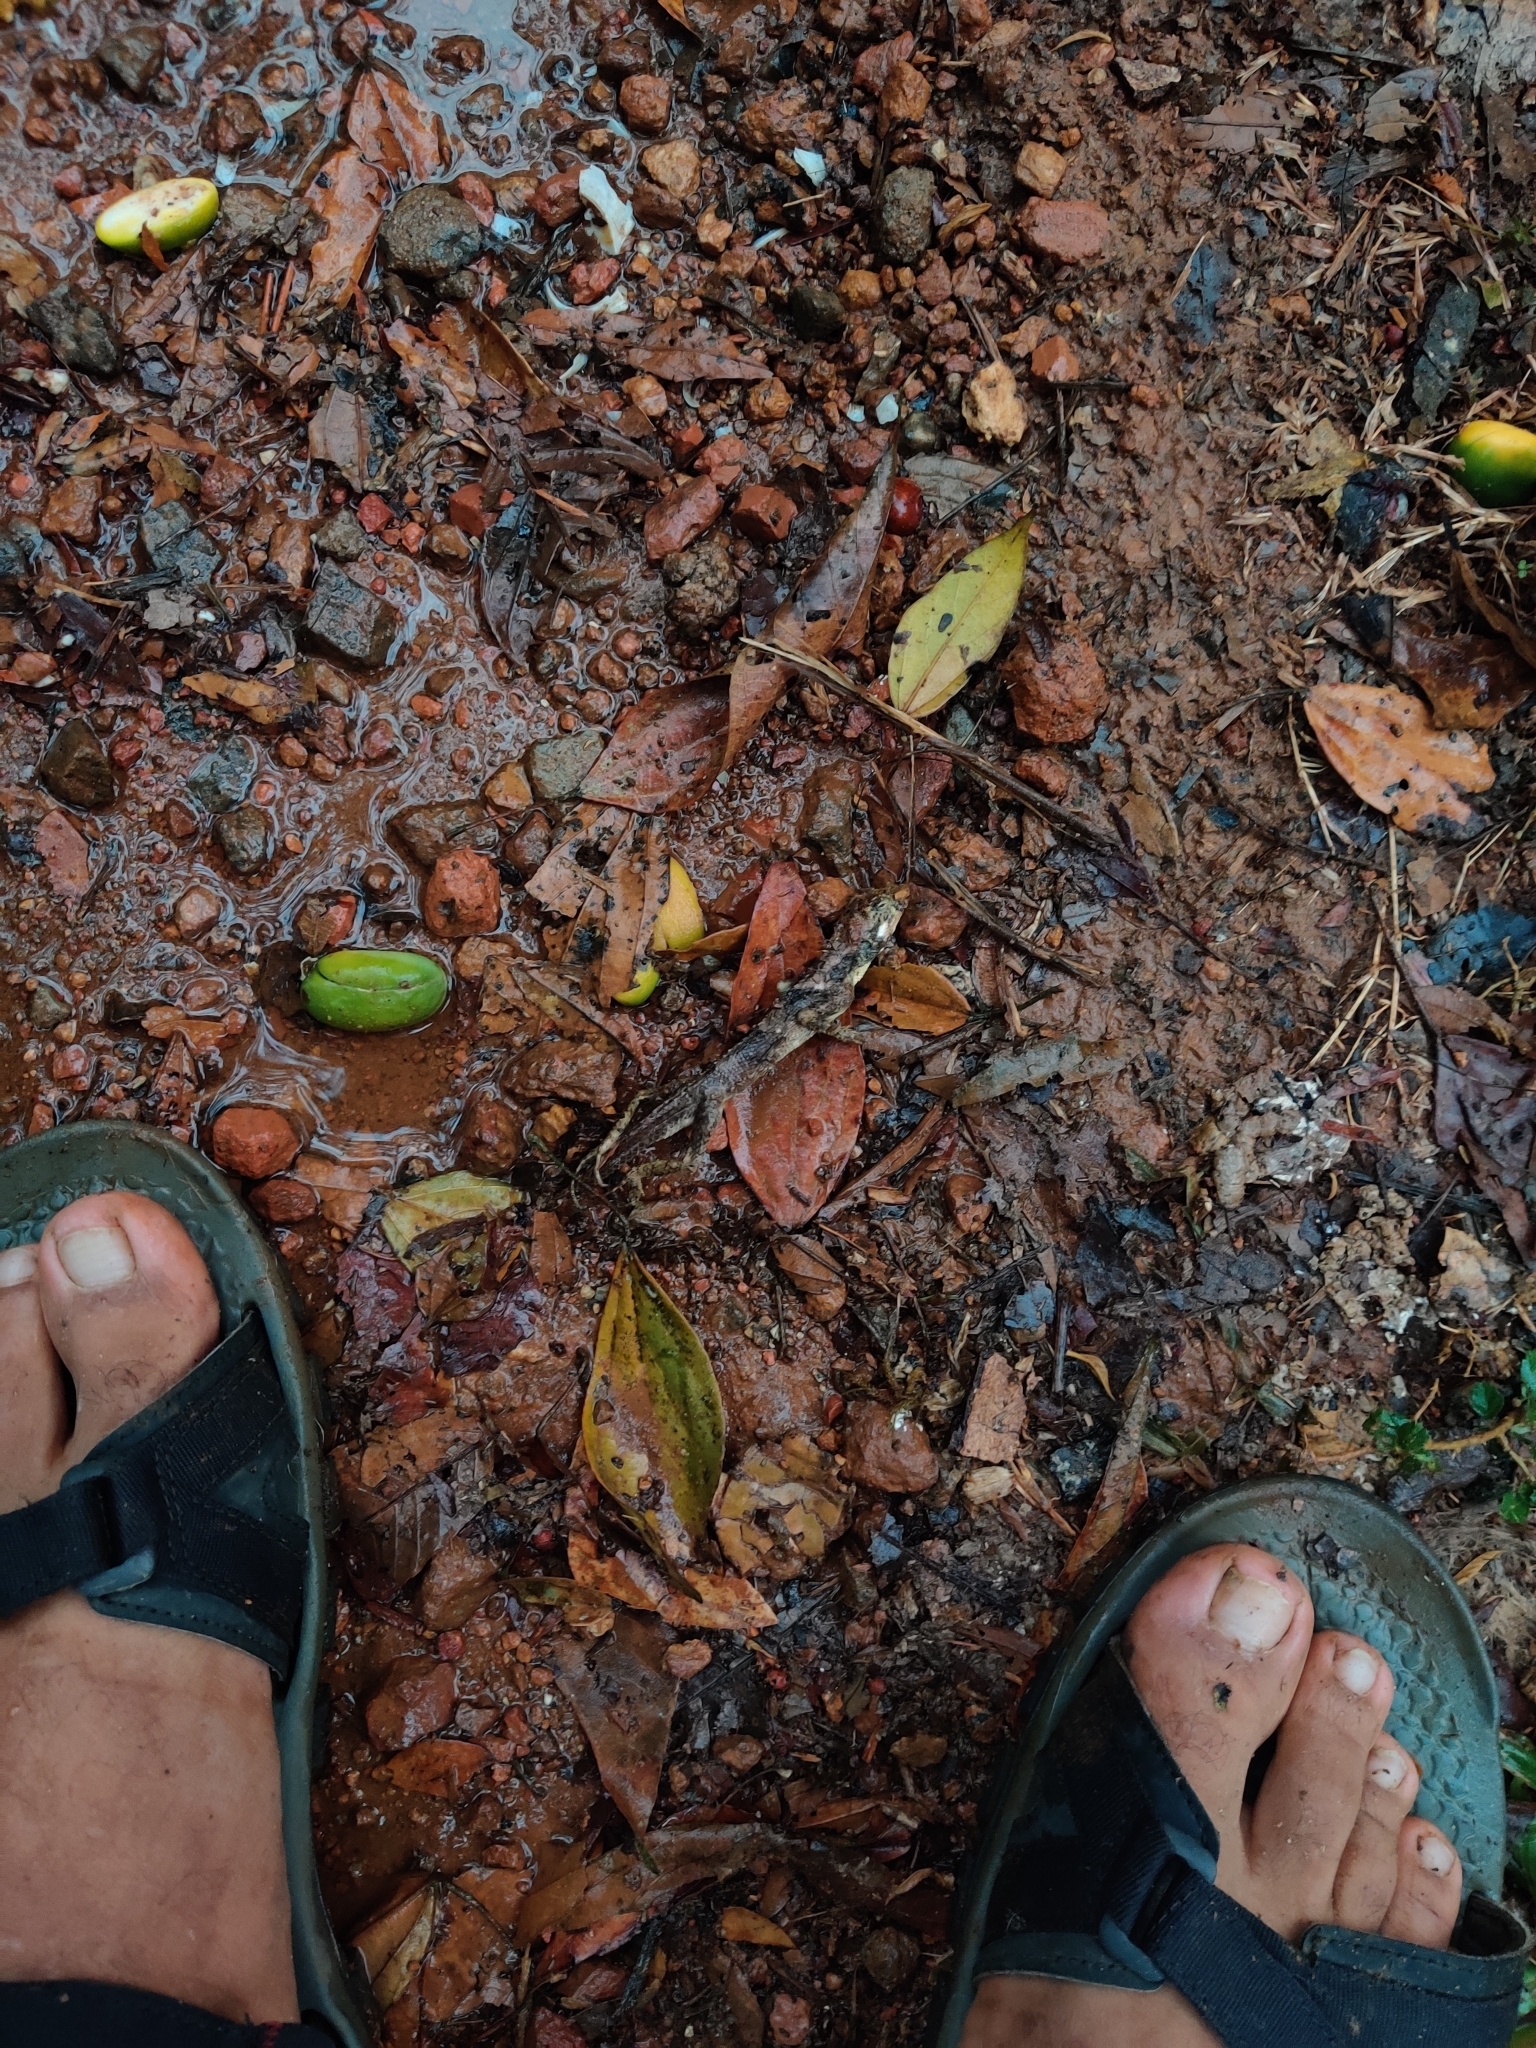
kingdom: Animalia
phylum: Chordata
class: Squamata
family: Agamidae
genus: Monilesaurus
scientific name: Monilesaurus ellioti
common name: Elliot's forest lizard
